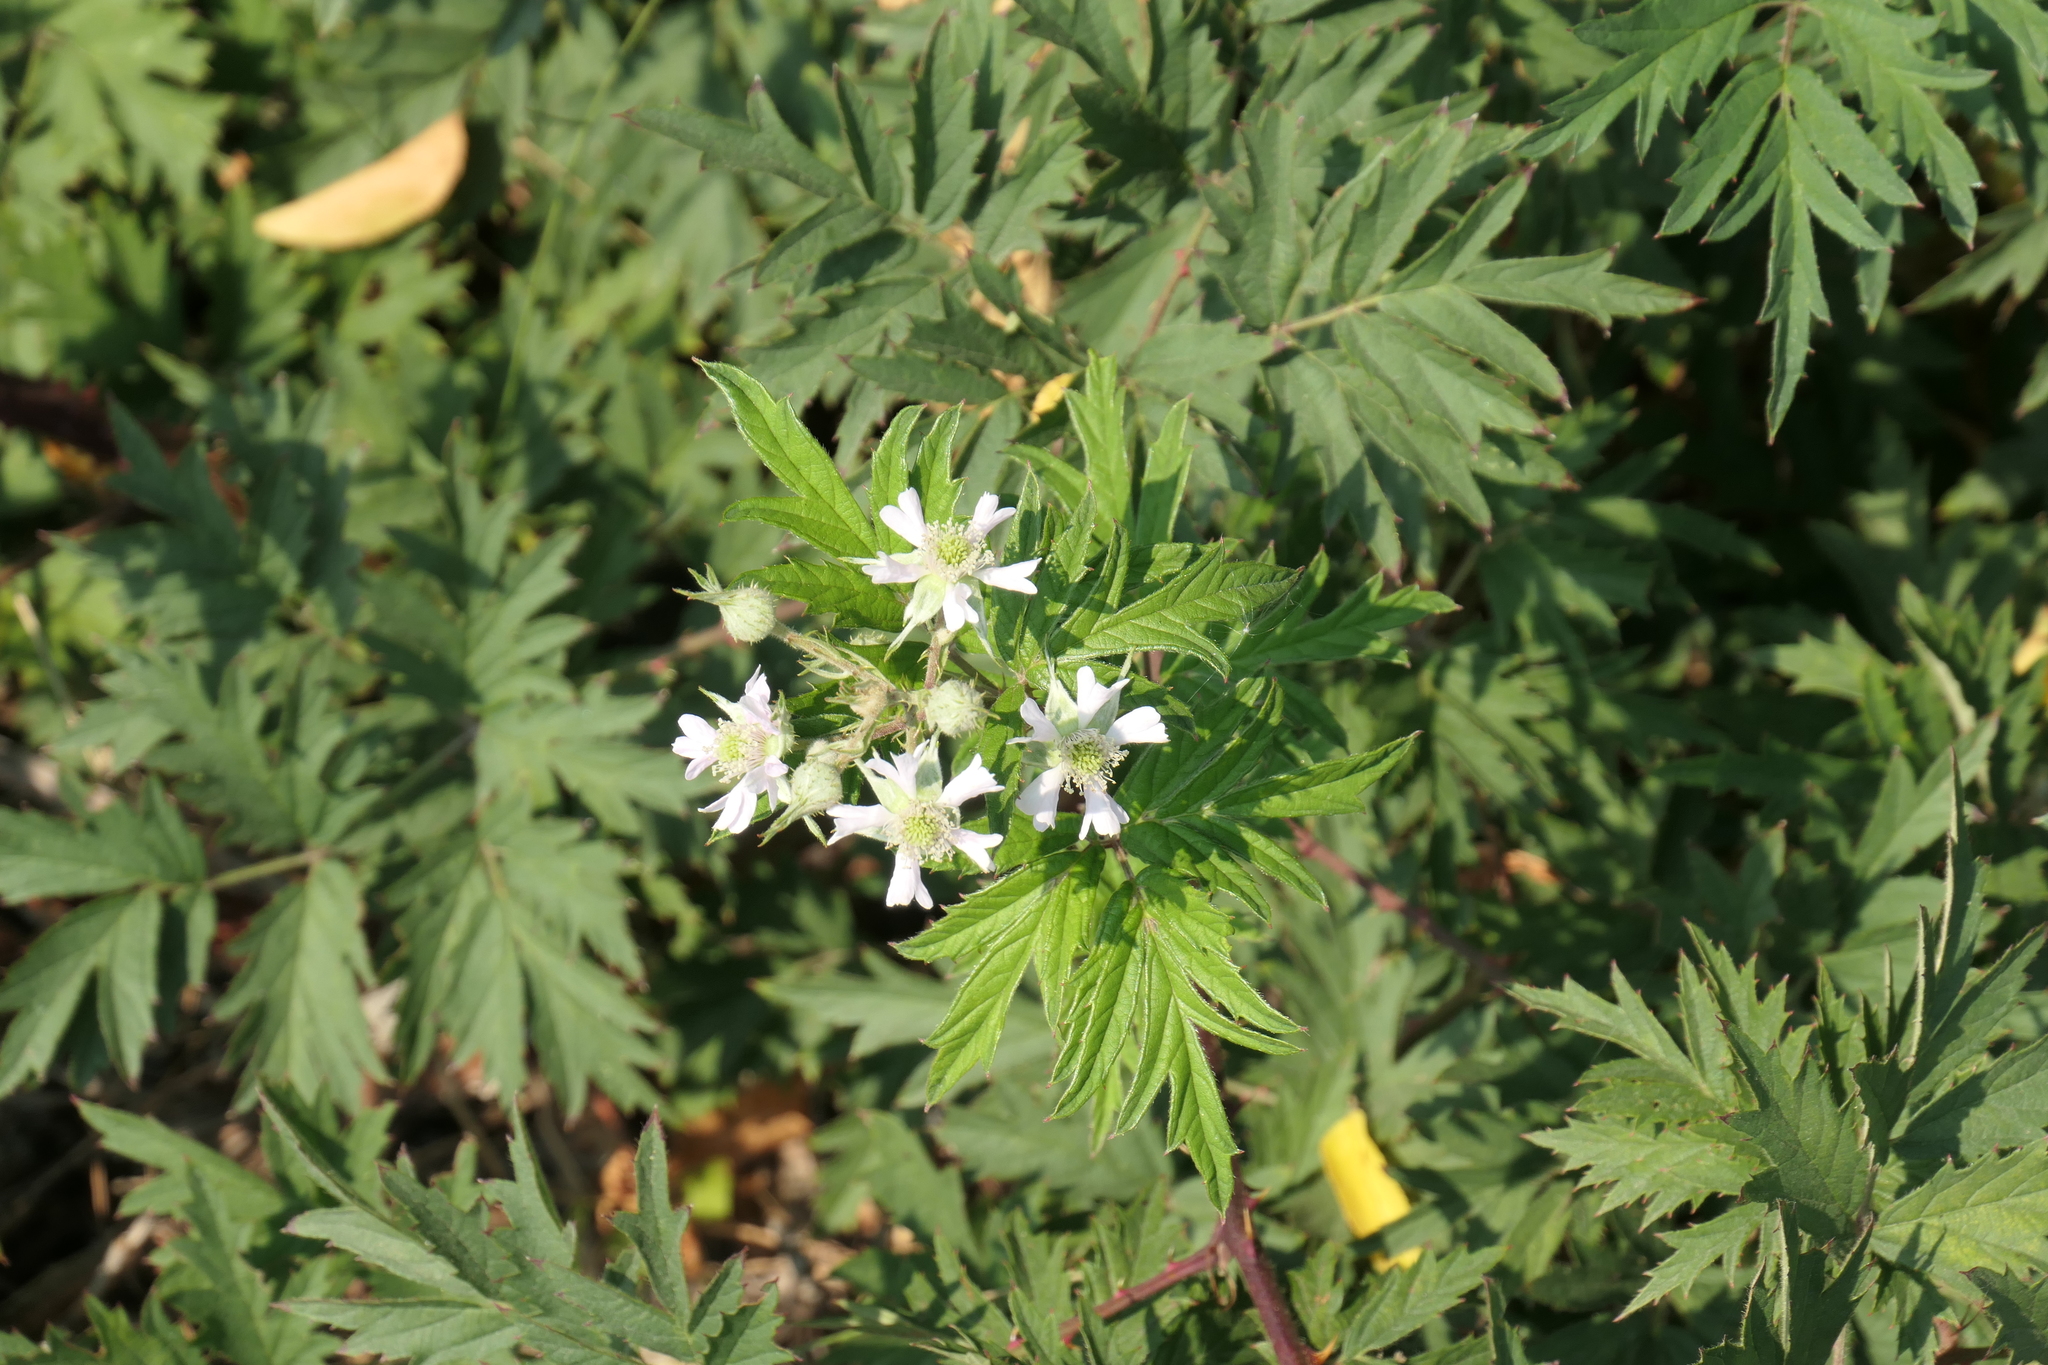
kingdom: Plantae
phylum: Tracheophyta
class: Magnoliopsida
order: Rosales
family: Rosaceae
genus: Rubus
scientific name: Rubus laciniatus
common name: Evergreen blackberry
